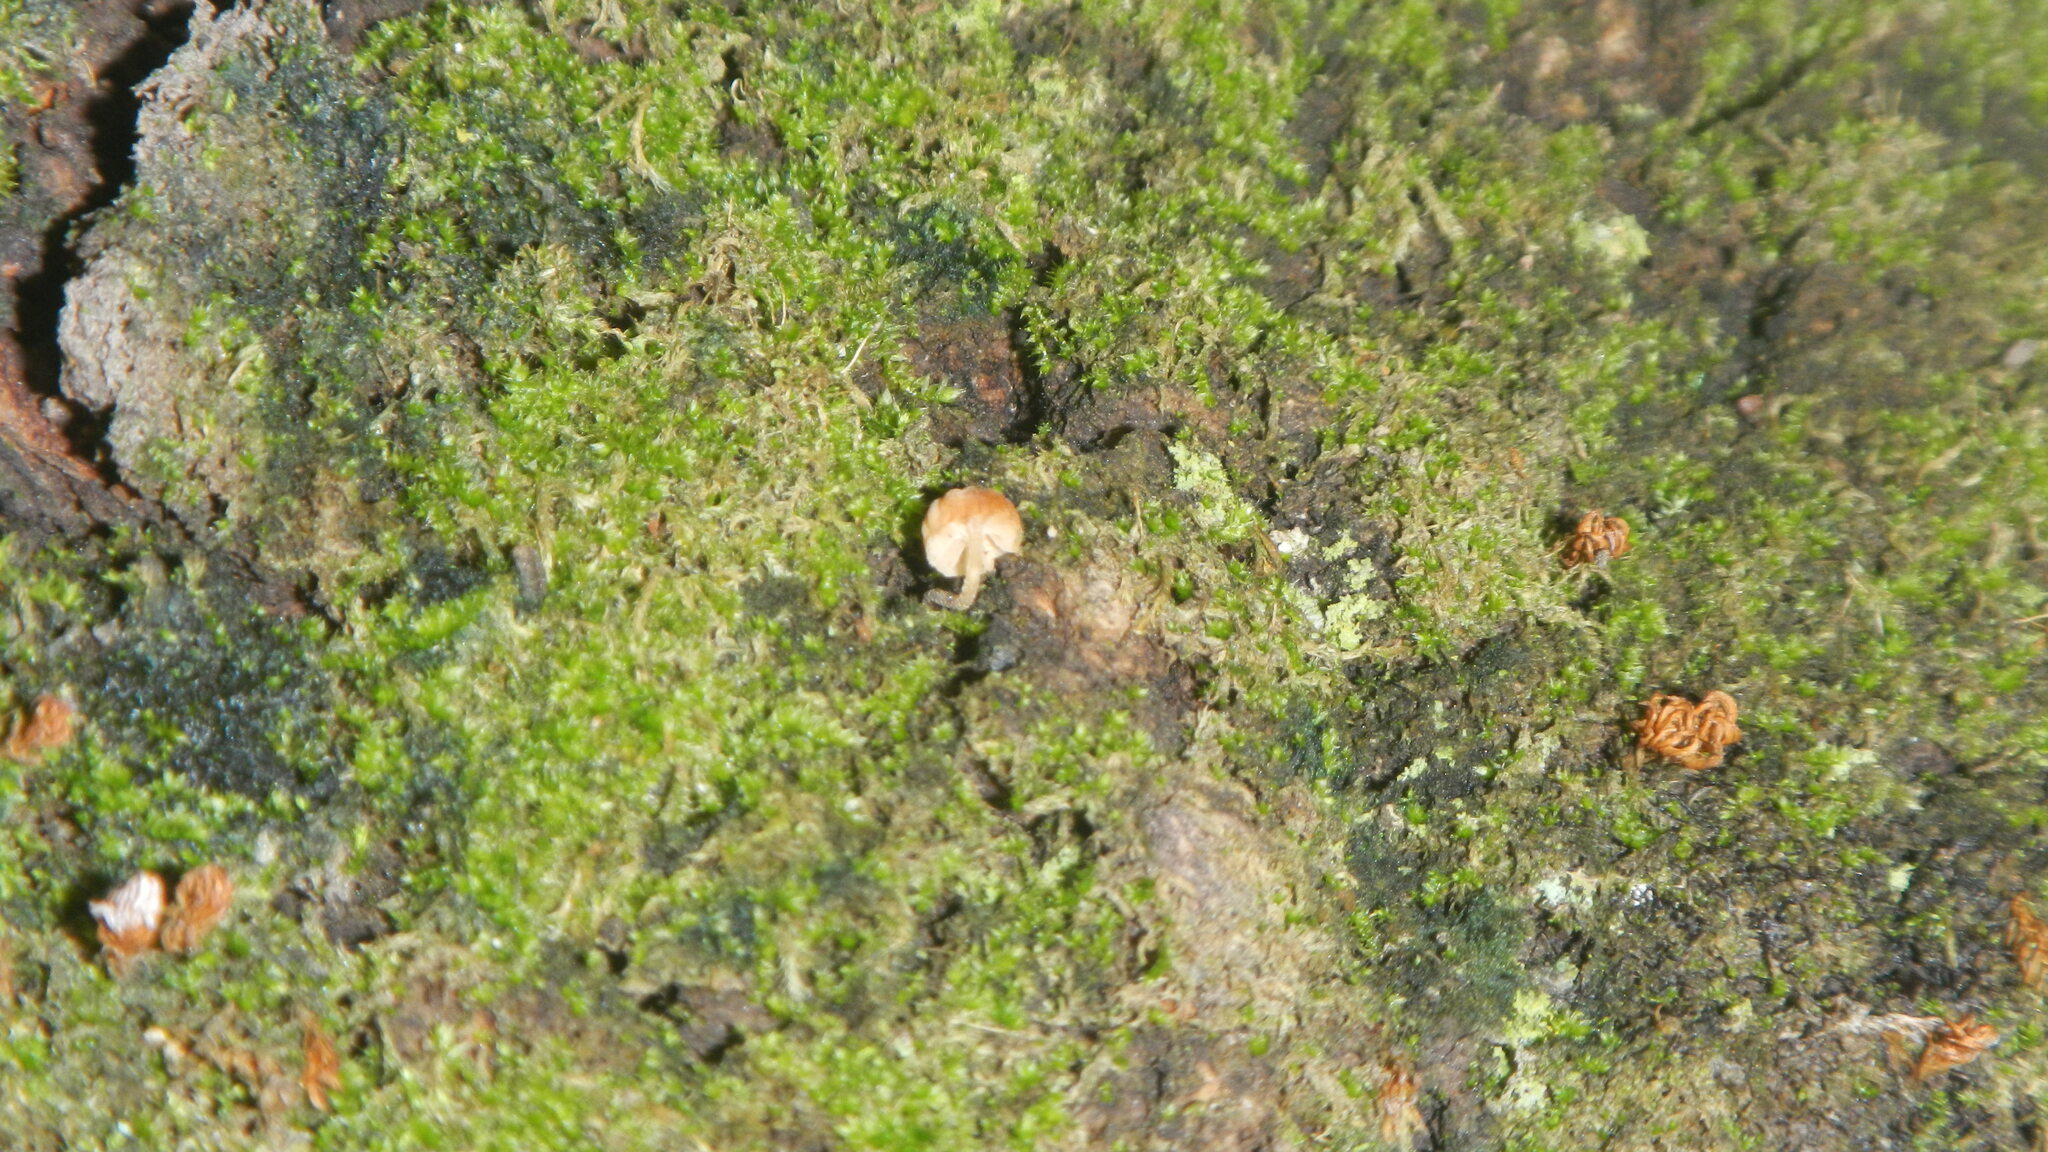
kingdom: Fungi
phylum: Basidiomycota
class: Agaricomycetes
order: Agaricales
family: Mycenaceae
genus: Mycena
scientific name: Mycena corticola
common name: Bark mycena
